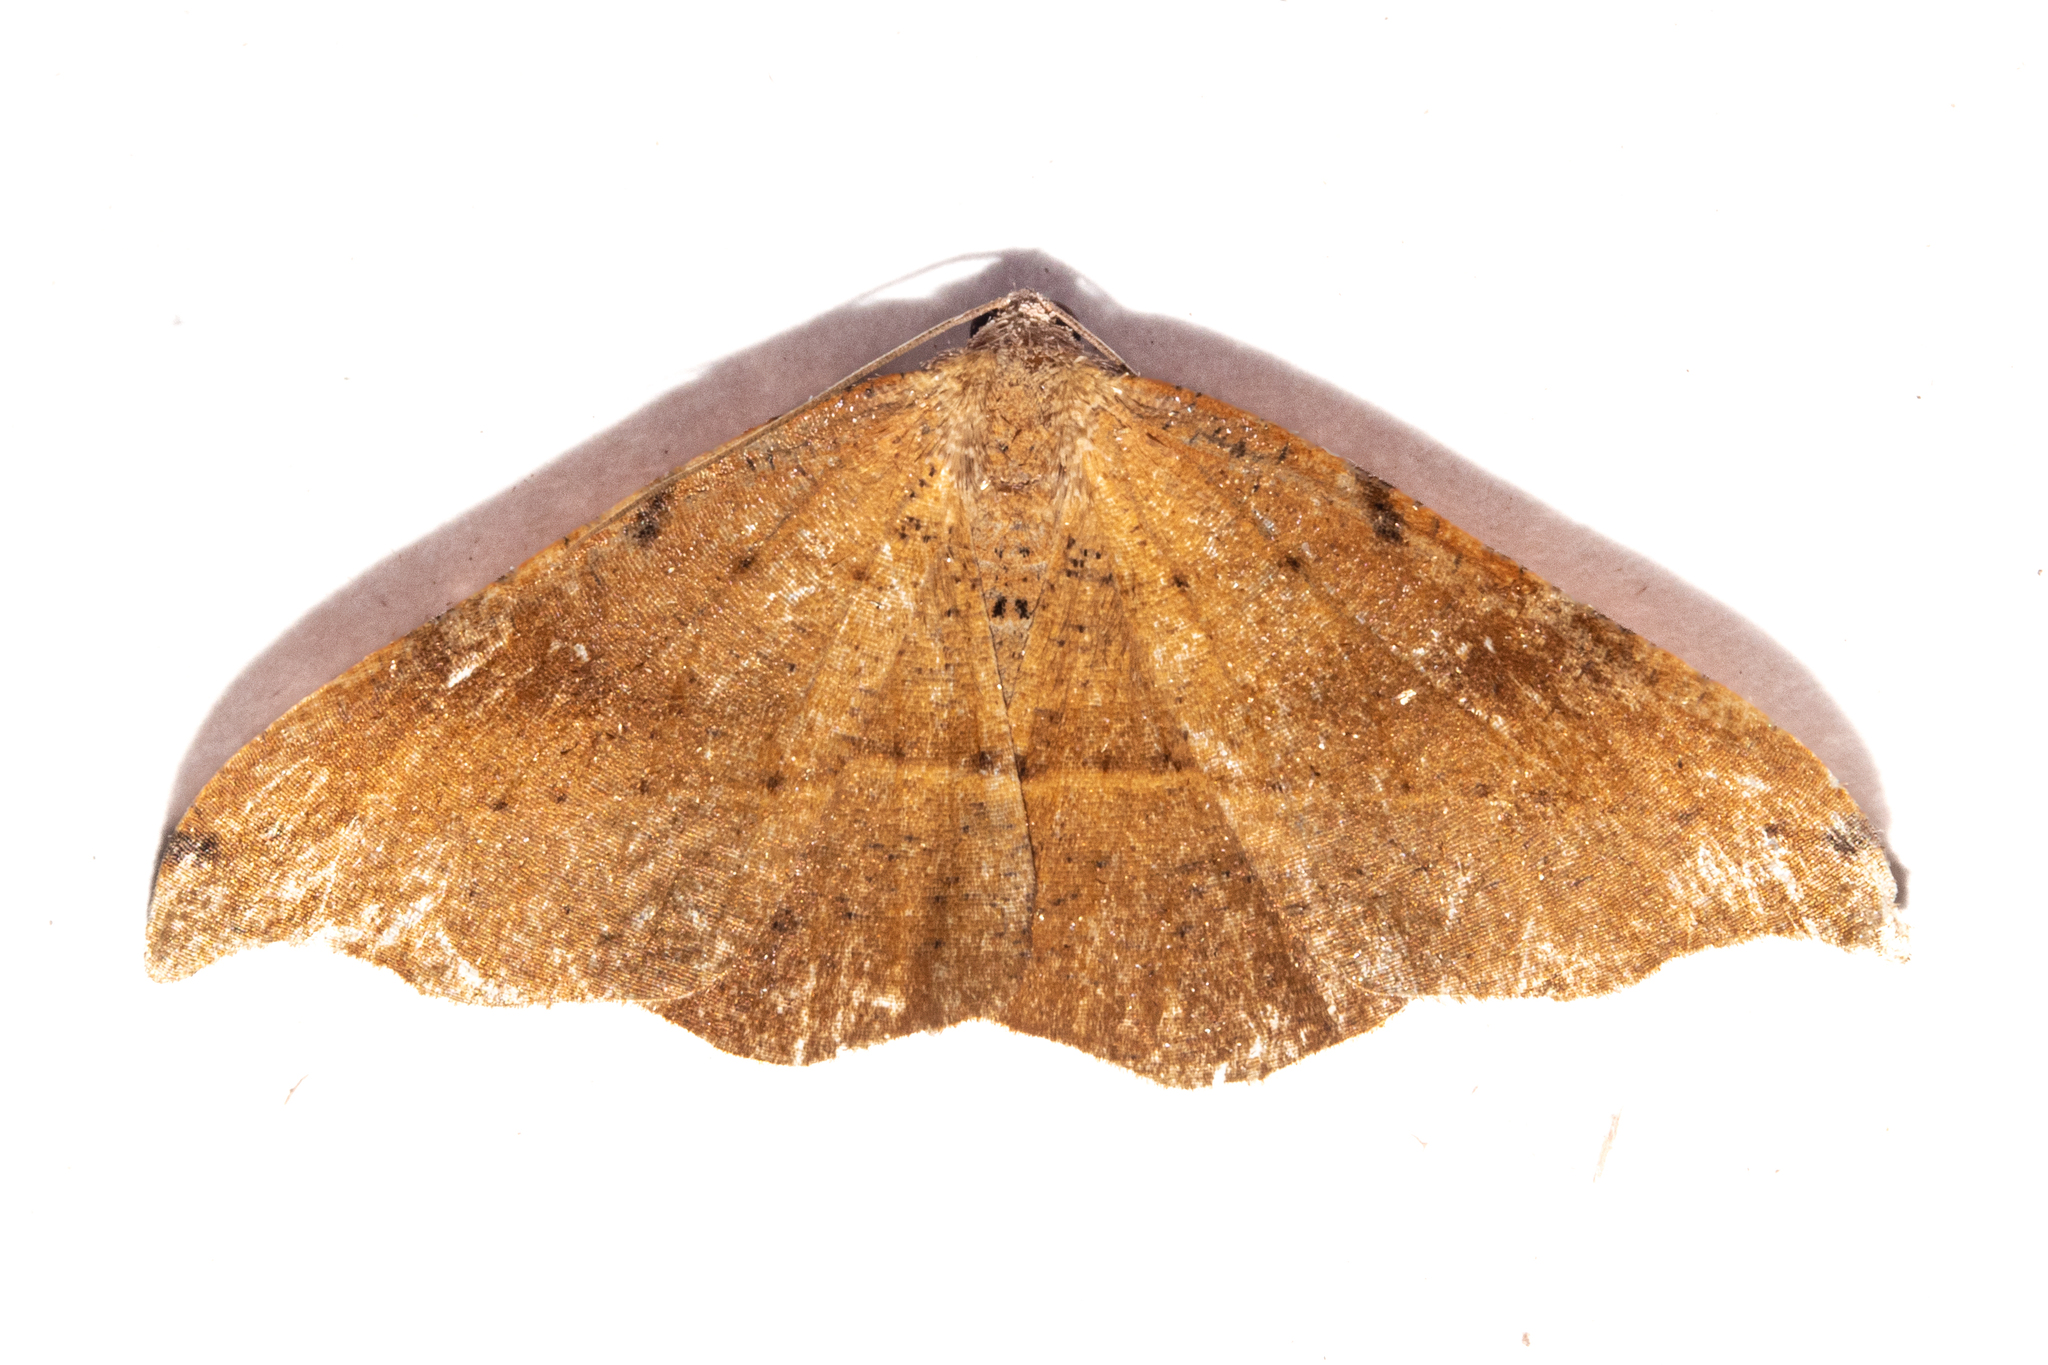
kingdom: Animalia
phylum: Arthropoda
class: Insecta
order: Lepidoptera
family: Geometridae
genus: Sarisa
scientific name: Sarisa muriferata
